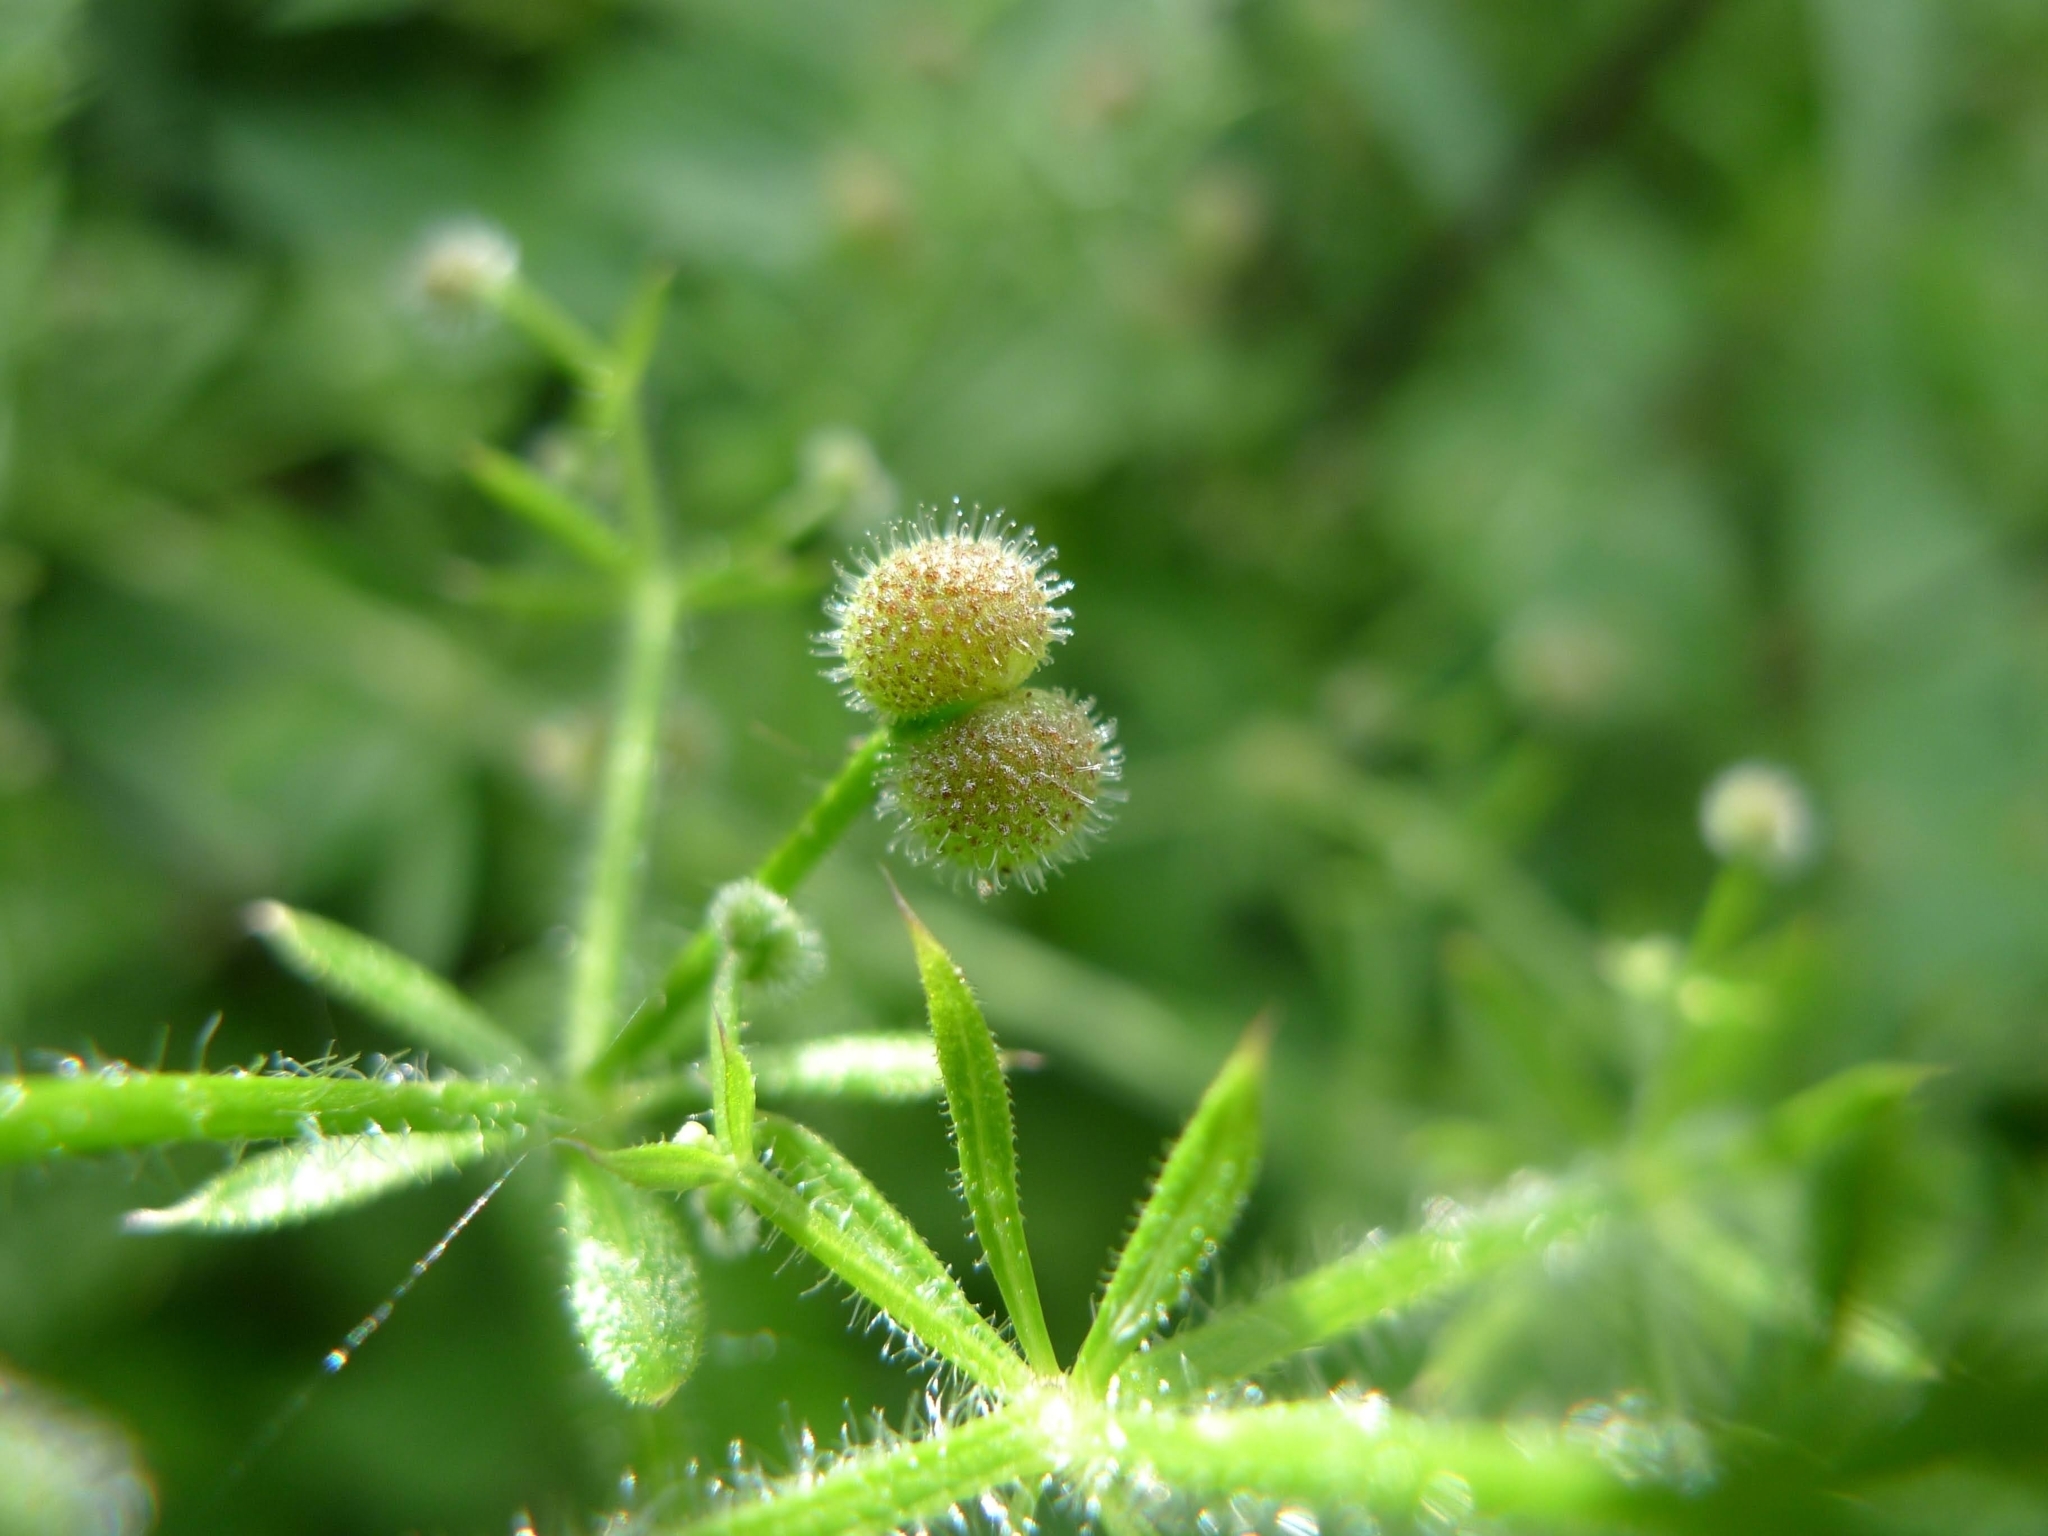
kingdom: Plantae
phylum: Tracheophyta
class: Magnoliopsida
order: Gentianales
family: Rubiaceae
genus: Galium
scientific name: Galium aparine
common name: Cleavers
